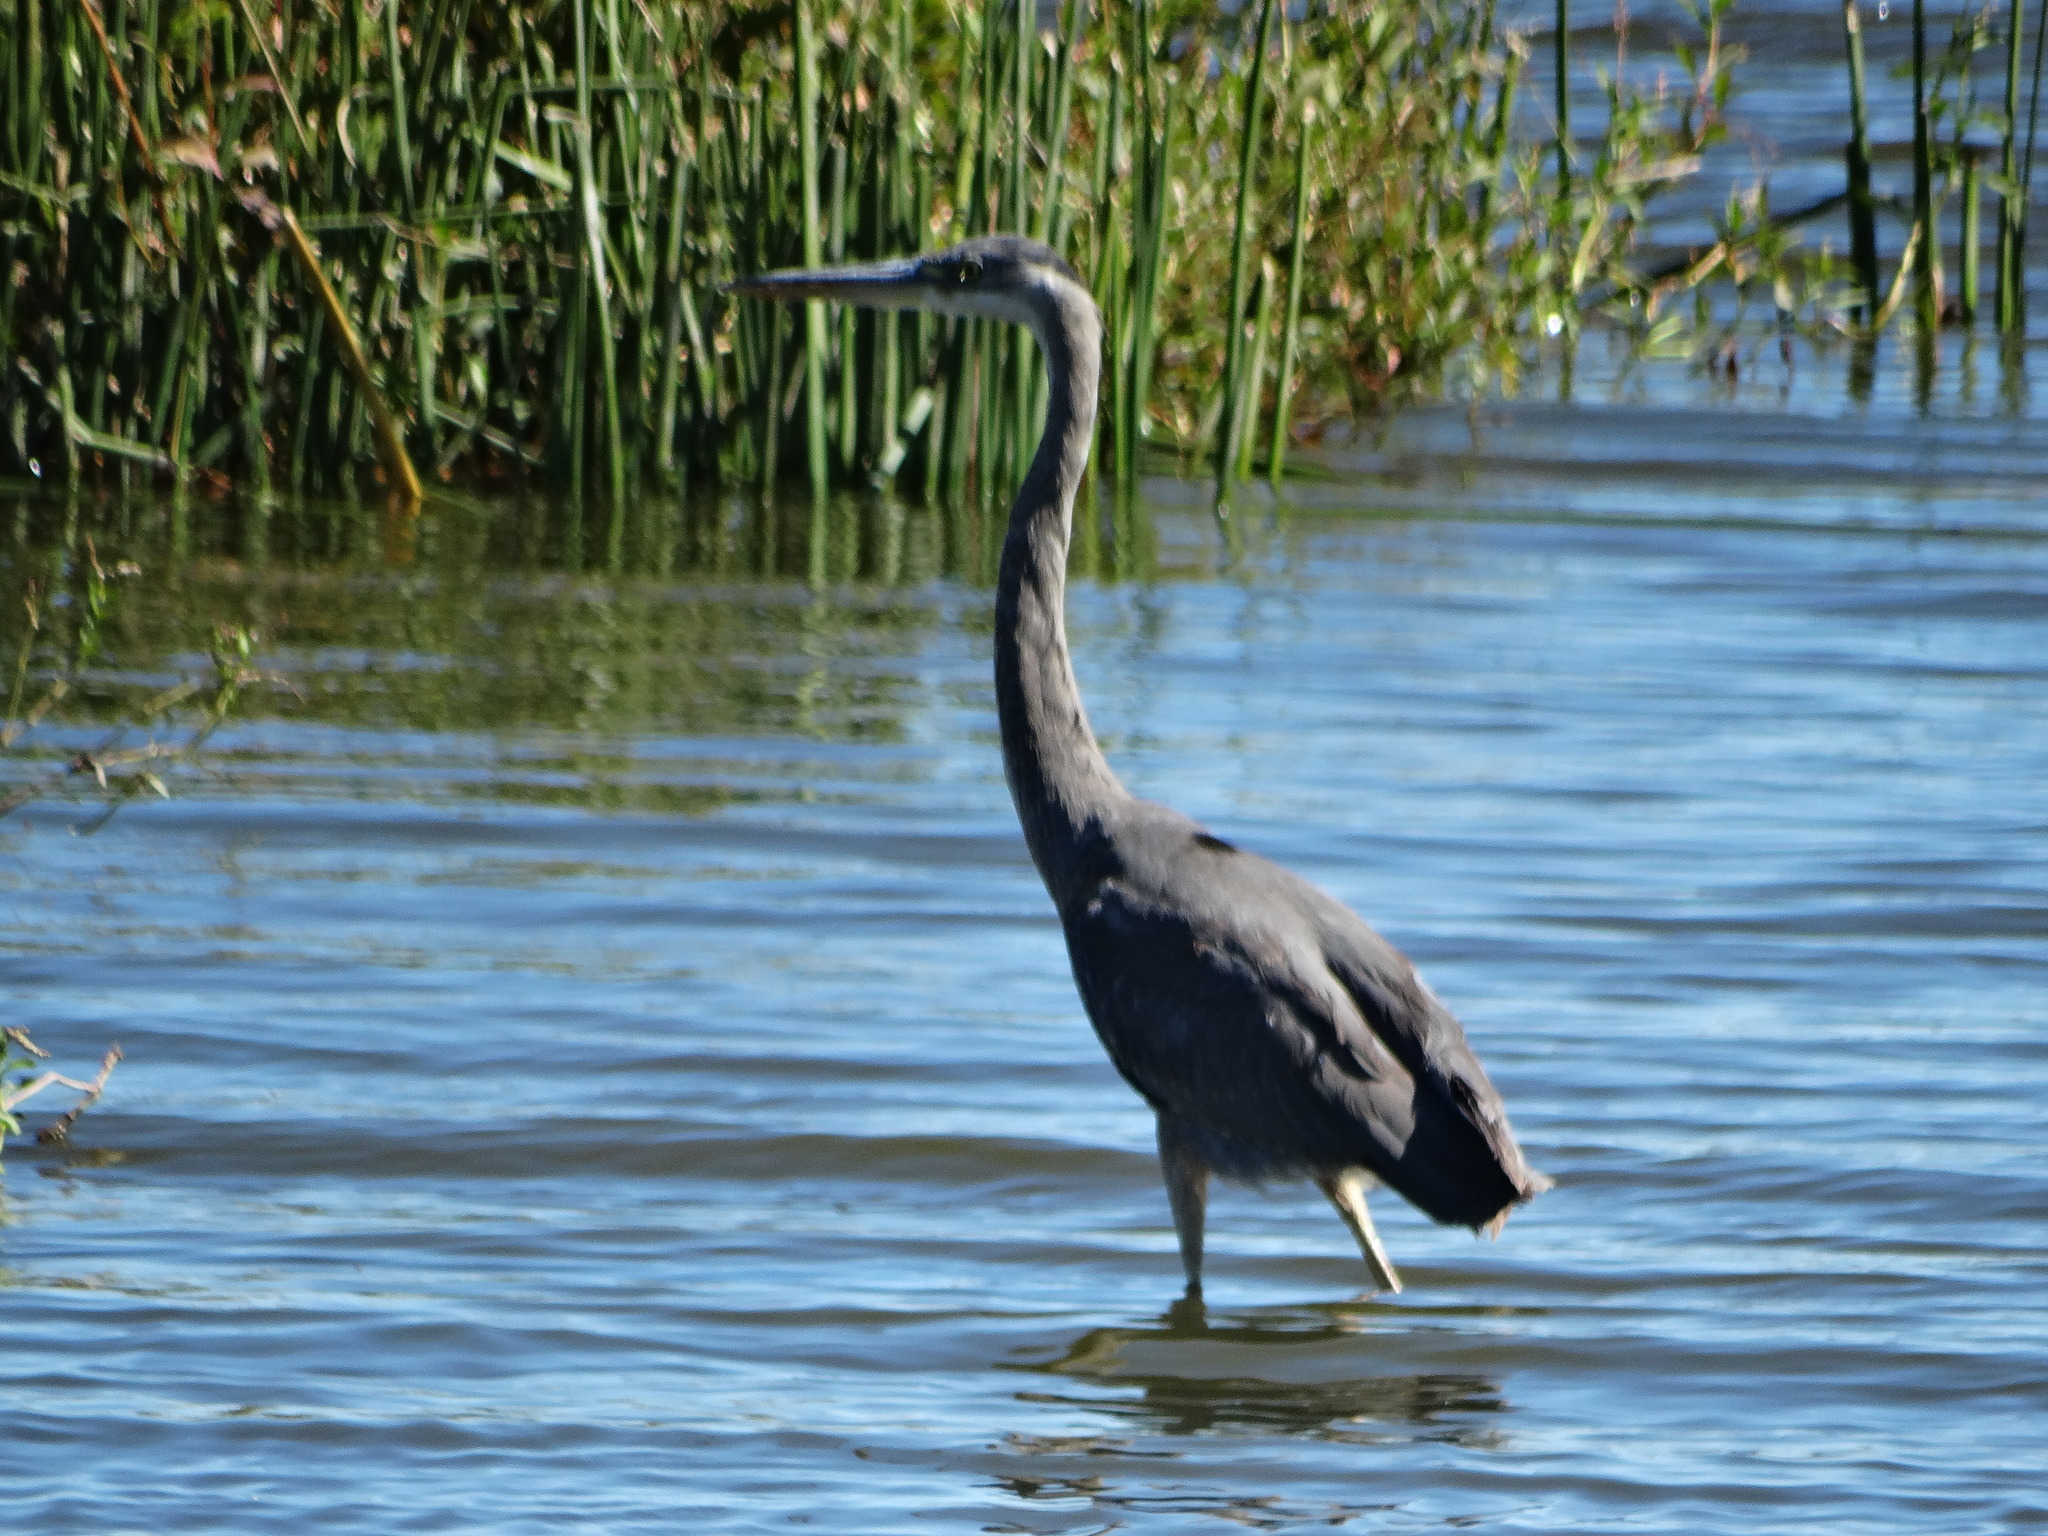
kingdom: Animalia
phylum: Chordata
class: Aves
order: Pelecaniformes
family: Ardeidae
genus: Ardea
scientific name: Ardea herodias
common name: Great blue heron
